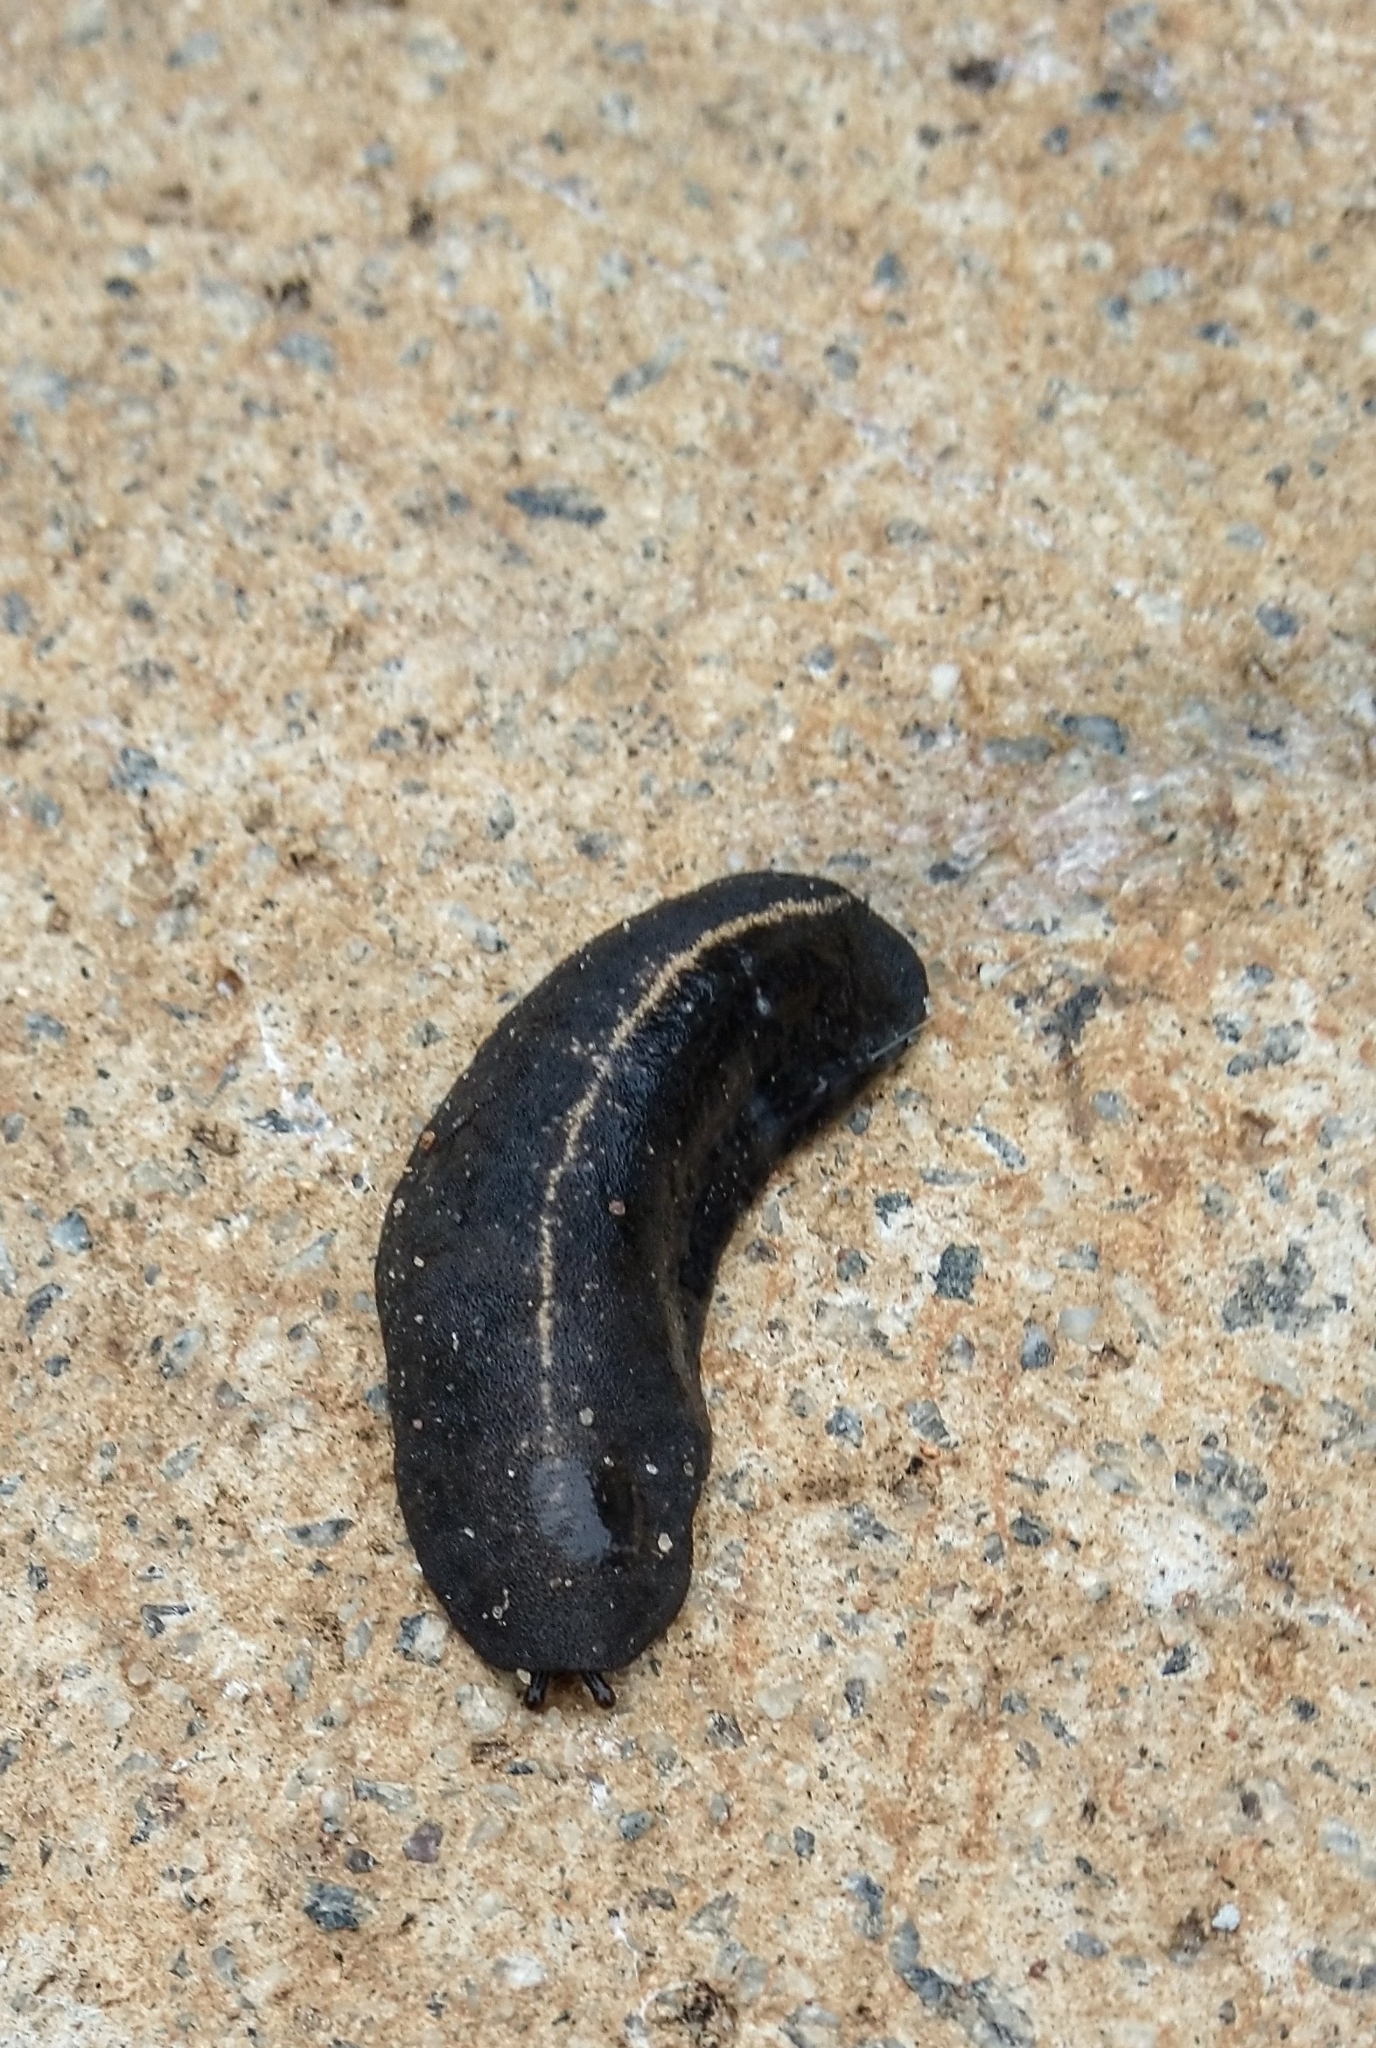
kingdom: Animalia
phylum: Mollusca
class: Gastropoda
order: Systellommatophora
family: Veronicellidae
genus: Laevicaulis
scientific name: Laevicaulis alte
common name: Tropical leatherleaf
